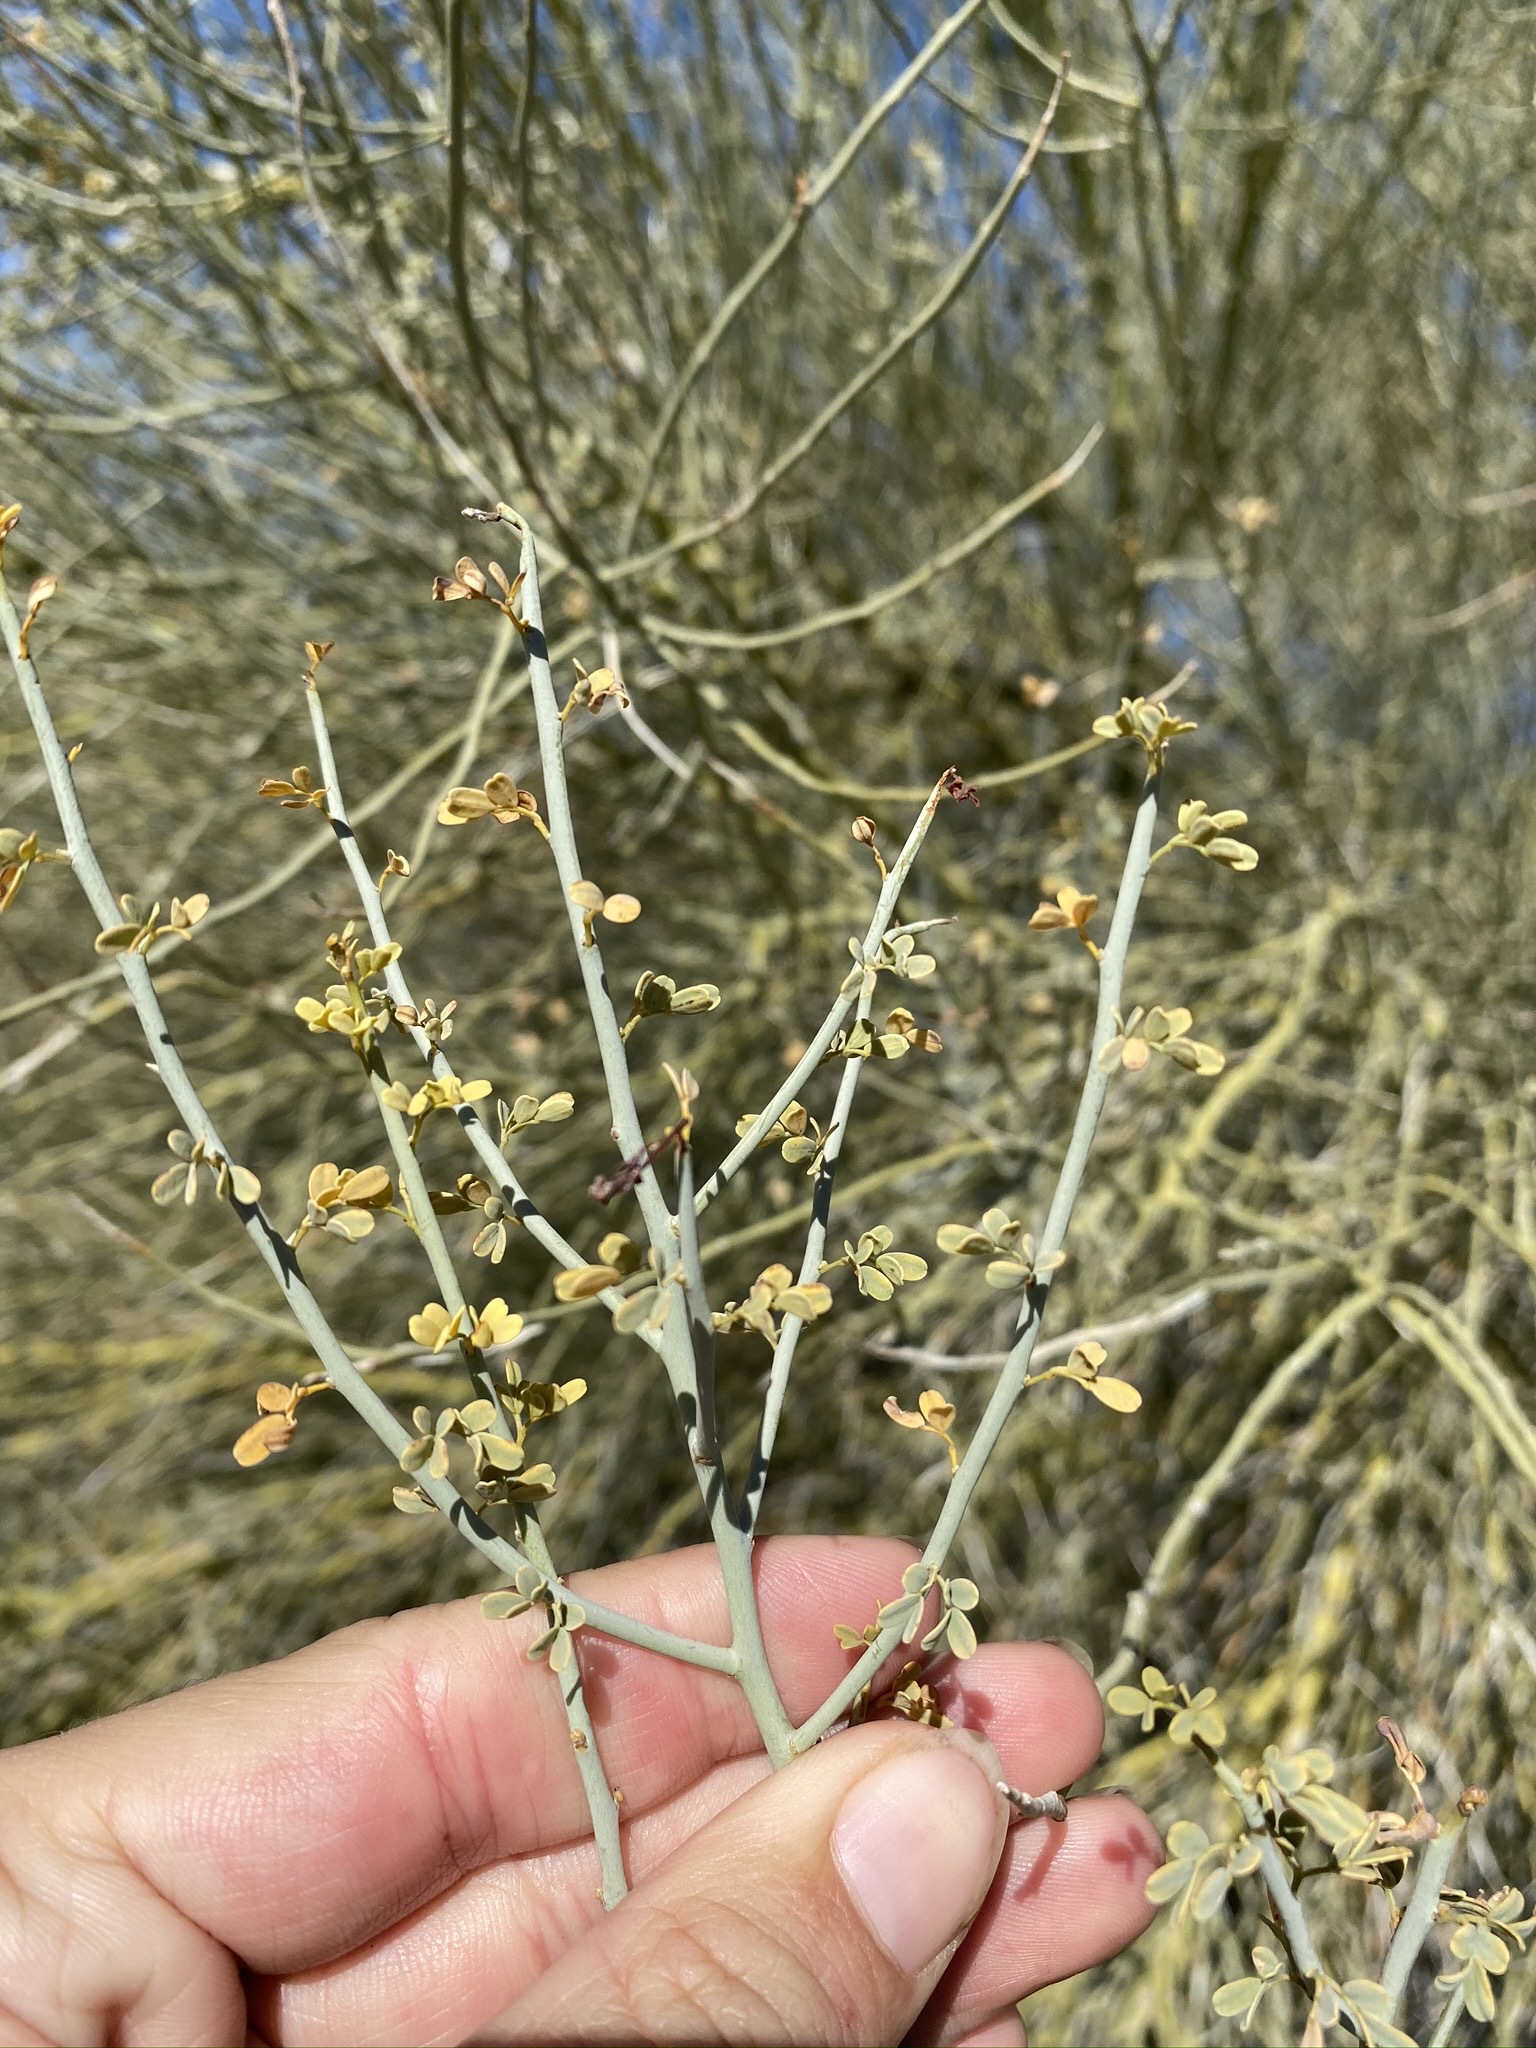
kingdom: Plantae
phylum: Tracheophyta
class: Magnoliopsida
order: Fabales
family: Fabaceae
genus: Parkinsonia
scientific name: Parkinsonia florida
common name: Blue paloverde
